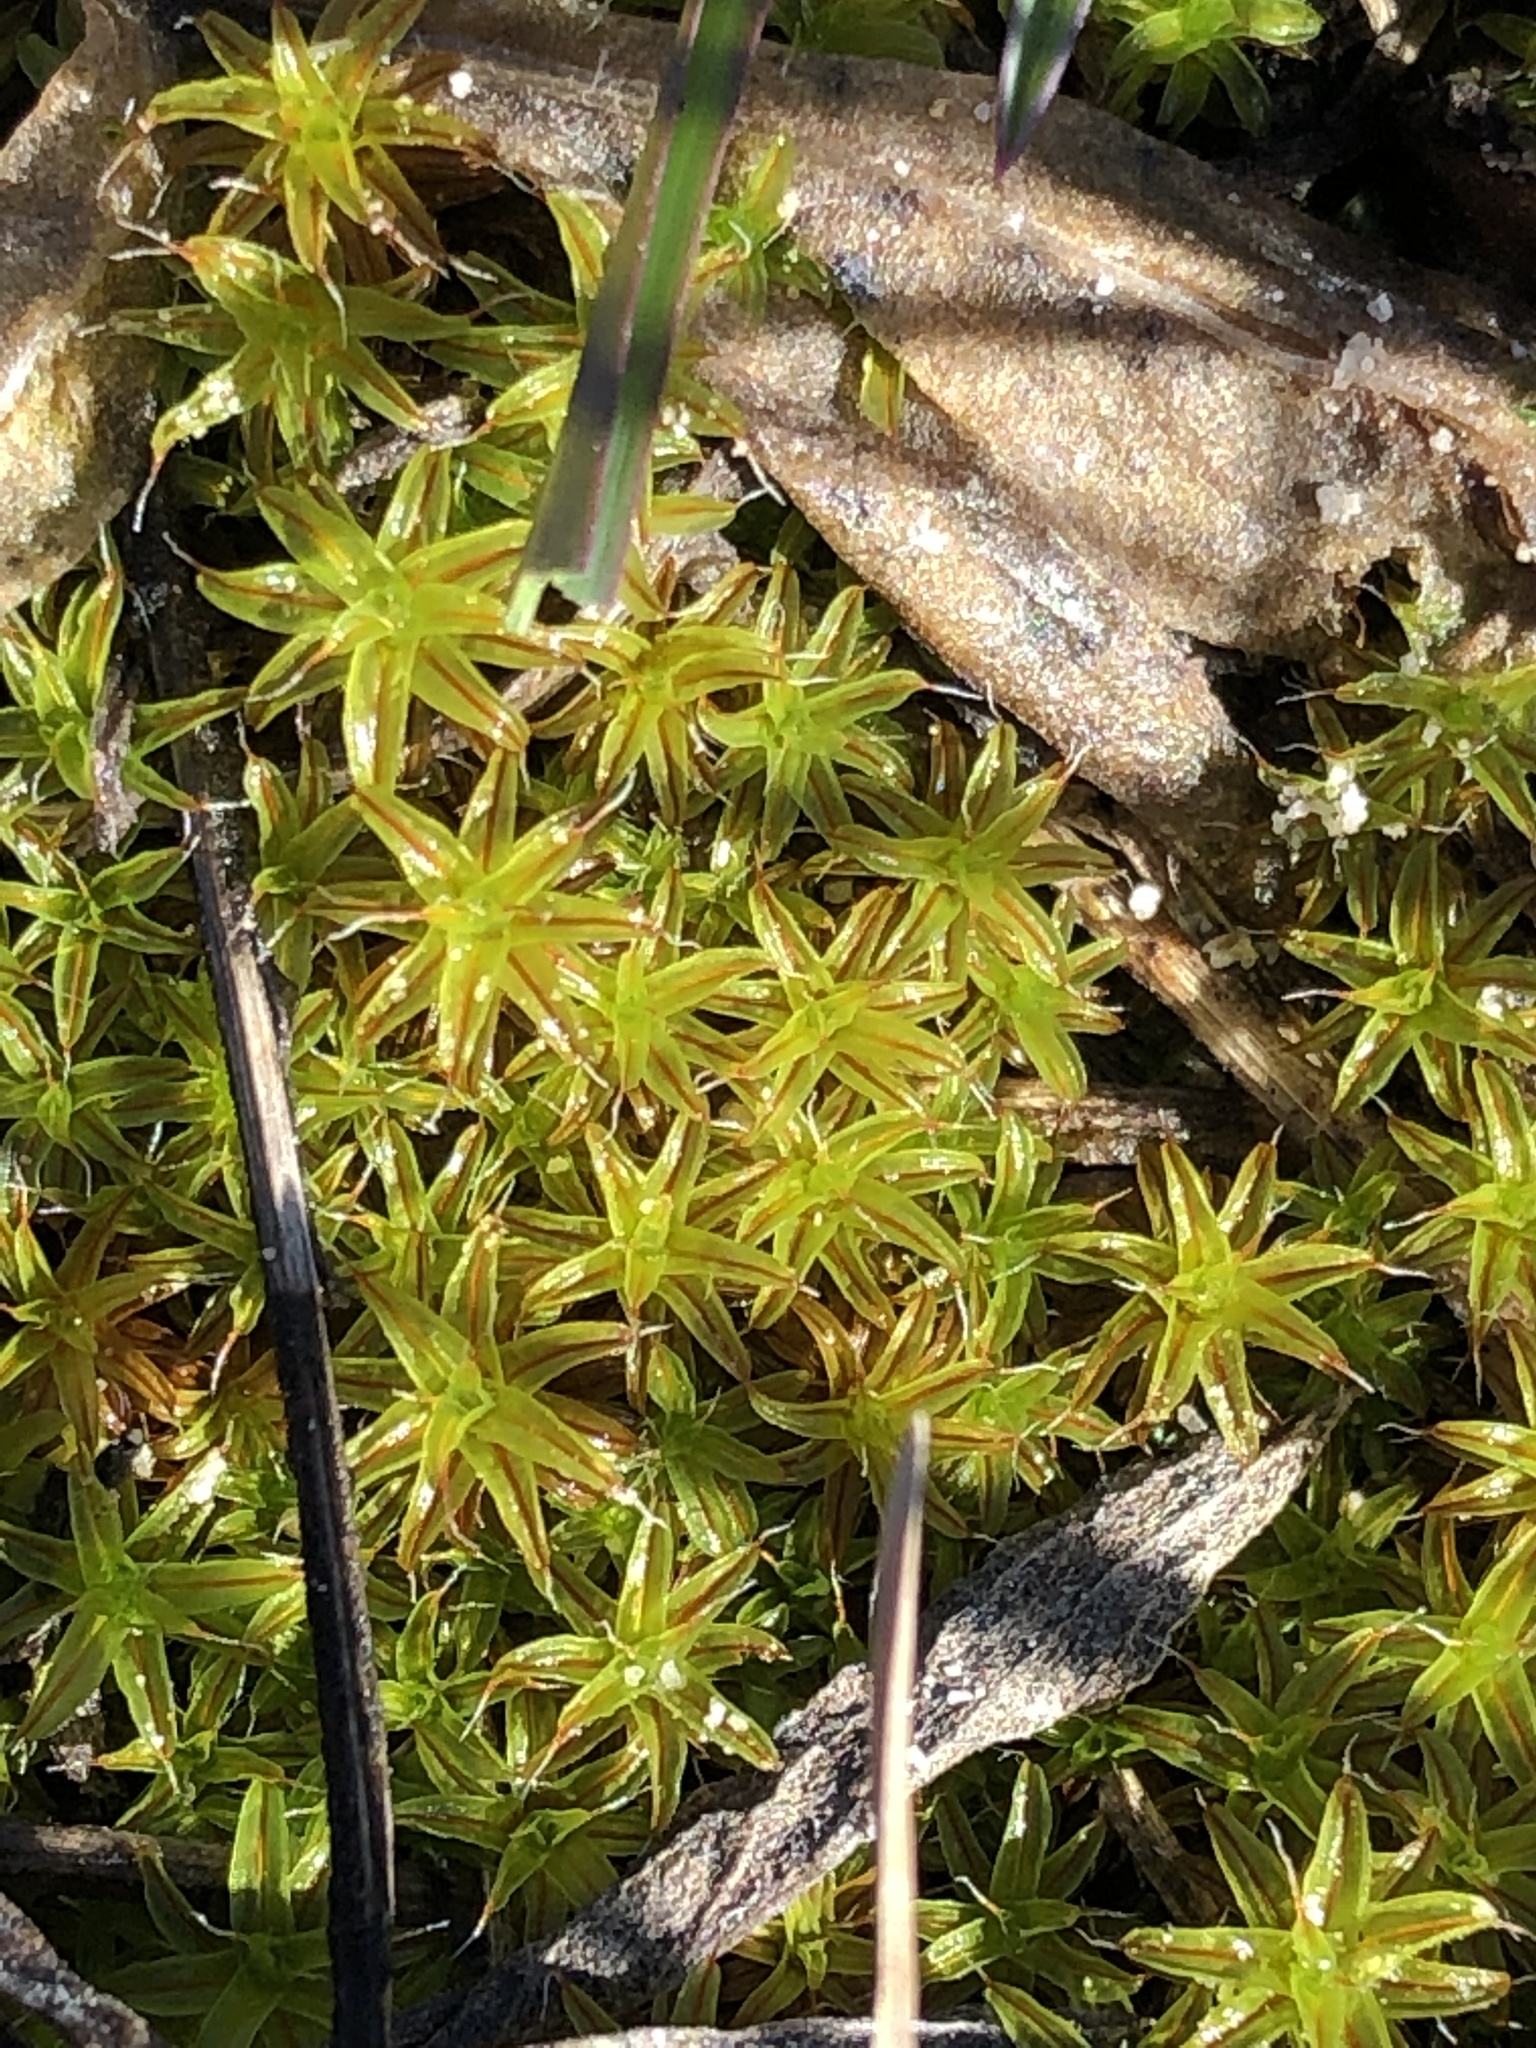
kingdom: Plantae
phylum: Bryophyta
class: Bryopsida
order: Pottiales
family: Pottiaceae
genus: Syntrichia
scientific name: Syntrichia ruralis
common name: Sidewalk screw moss
